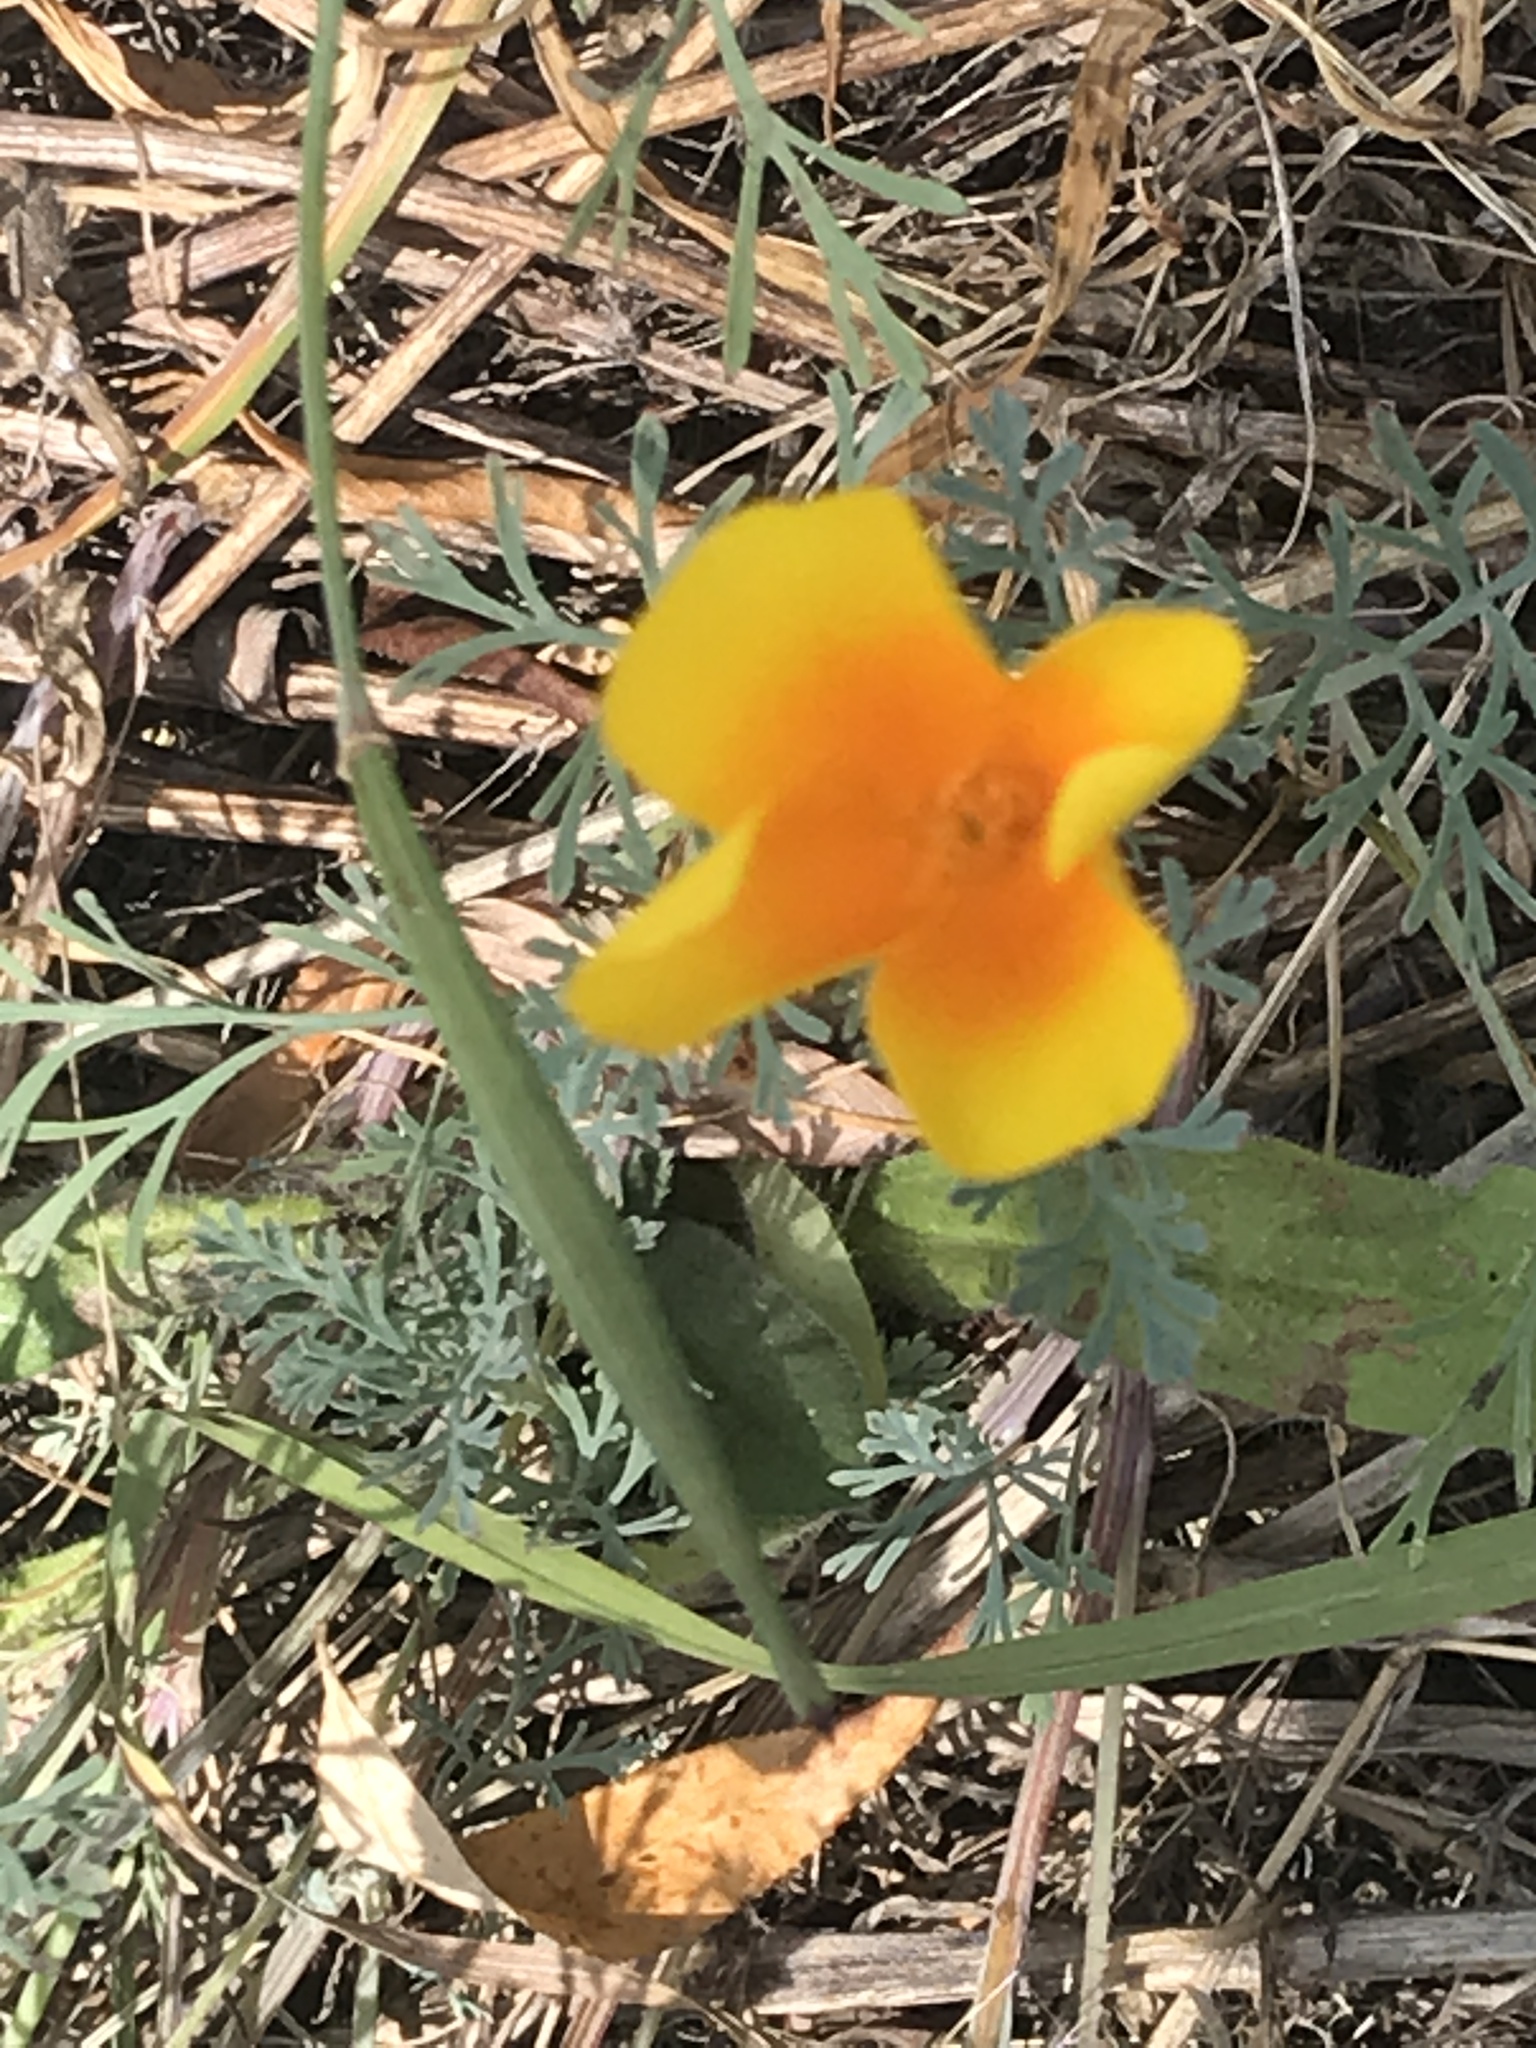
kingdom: Plantae
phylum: Tracheophyta
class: Magnoliopsida
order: Ranunculales
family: Papaveraceae
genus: Eschscholzia
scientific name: Eschscholzia californica
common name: California poppy
